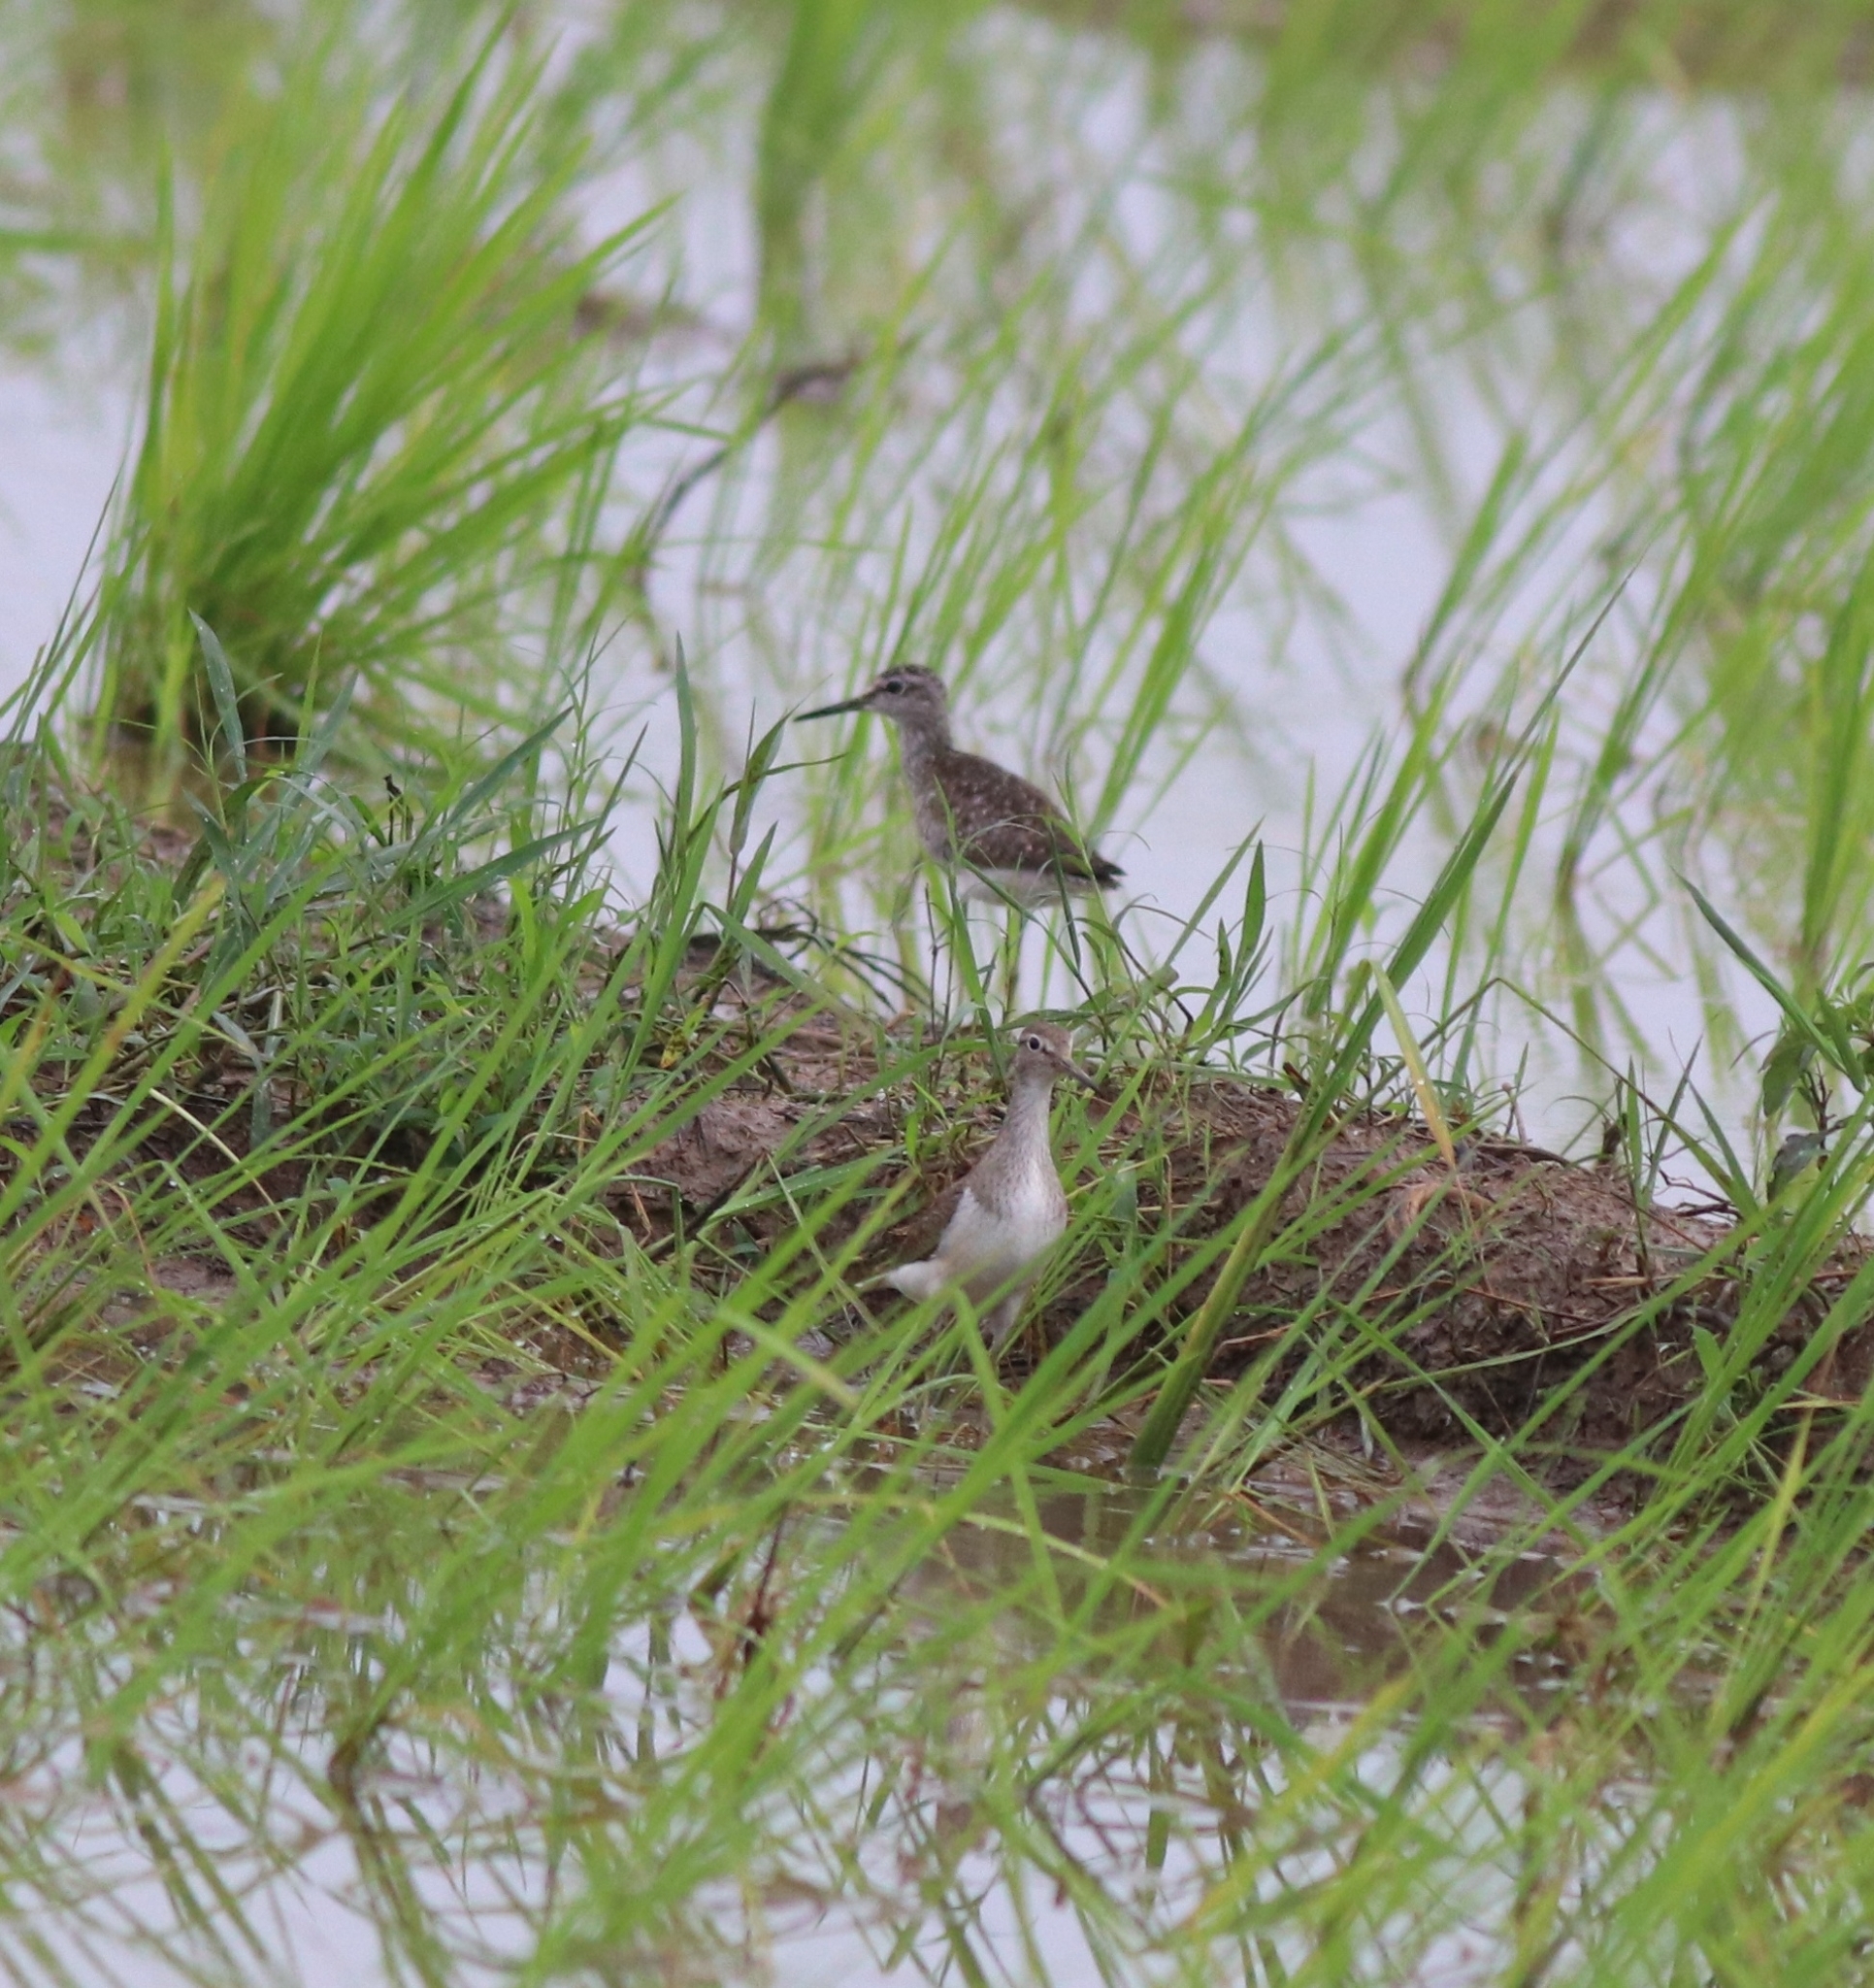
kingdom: Animalia
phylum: Chordata
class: Aves
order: Charadriiformes
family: Scolopacidae
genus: Tringa
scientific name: Tringa glareola
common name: Wood sandpiper
